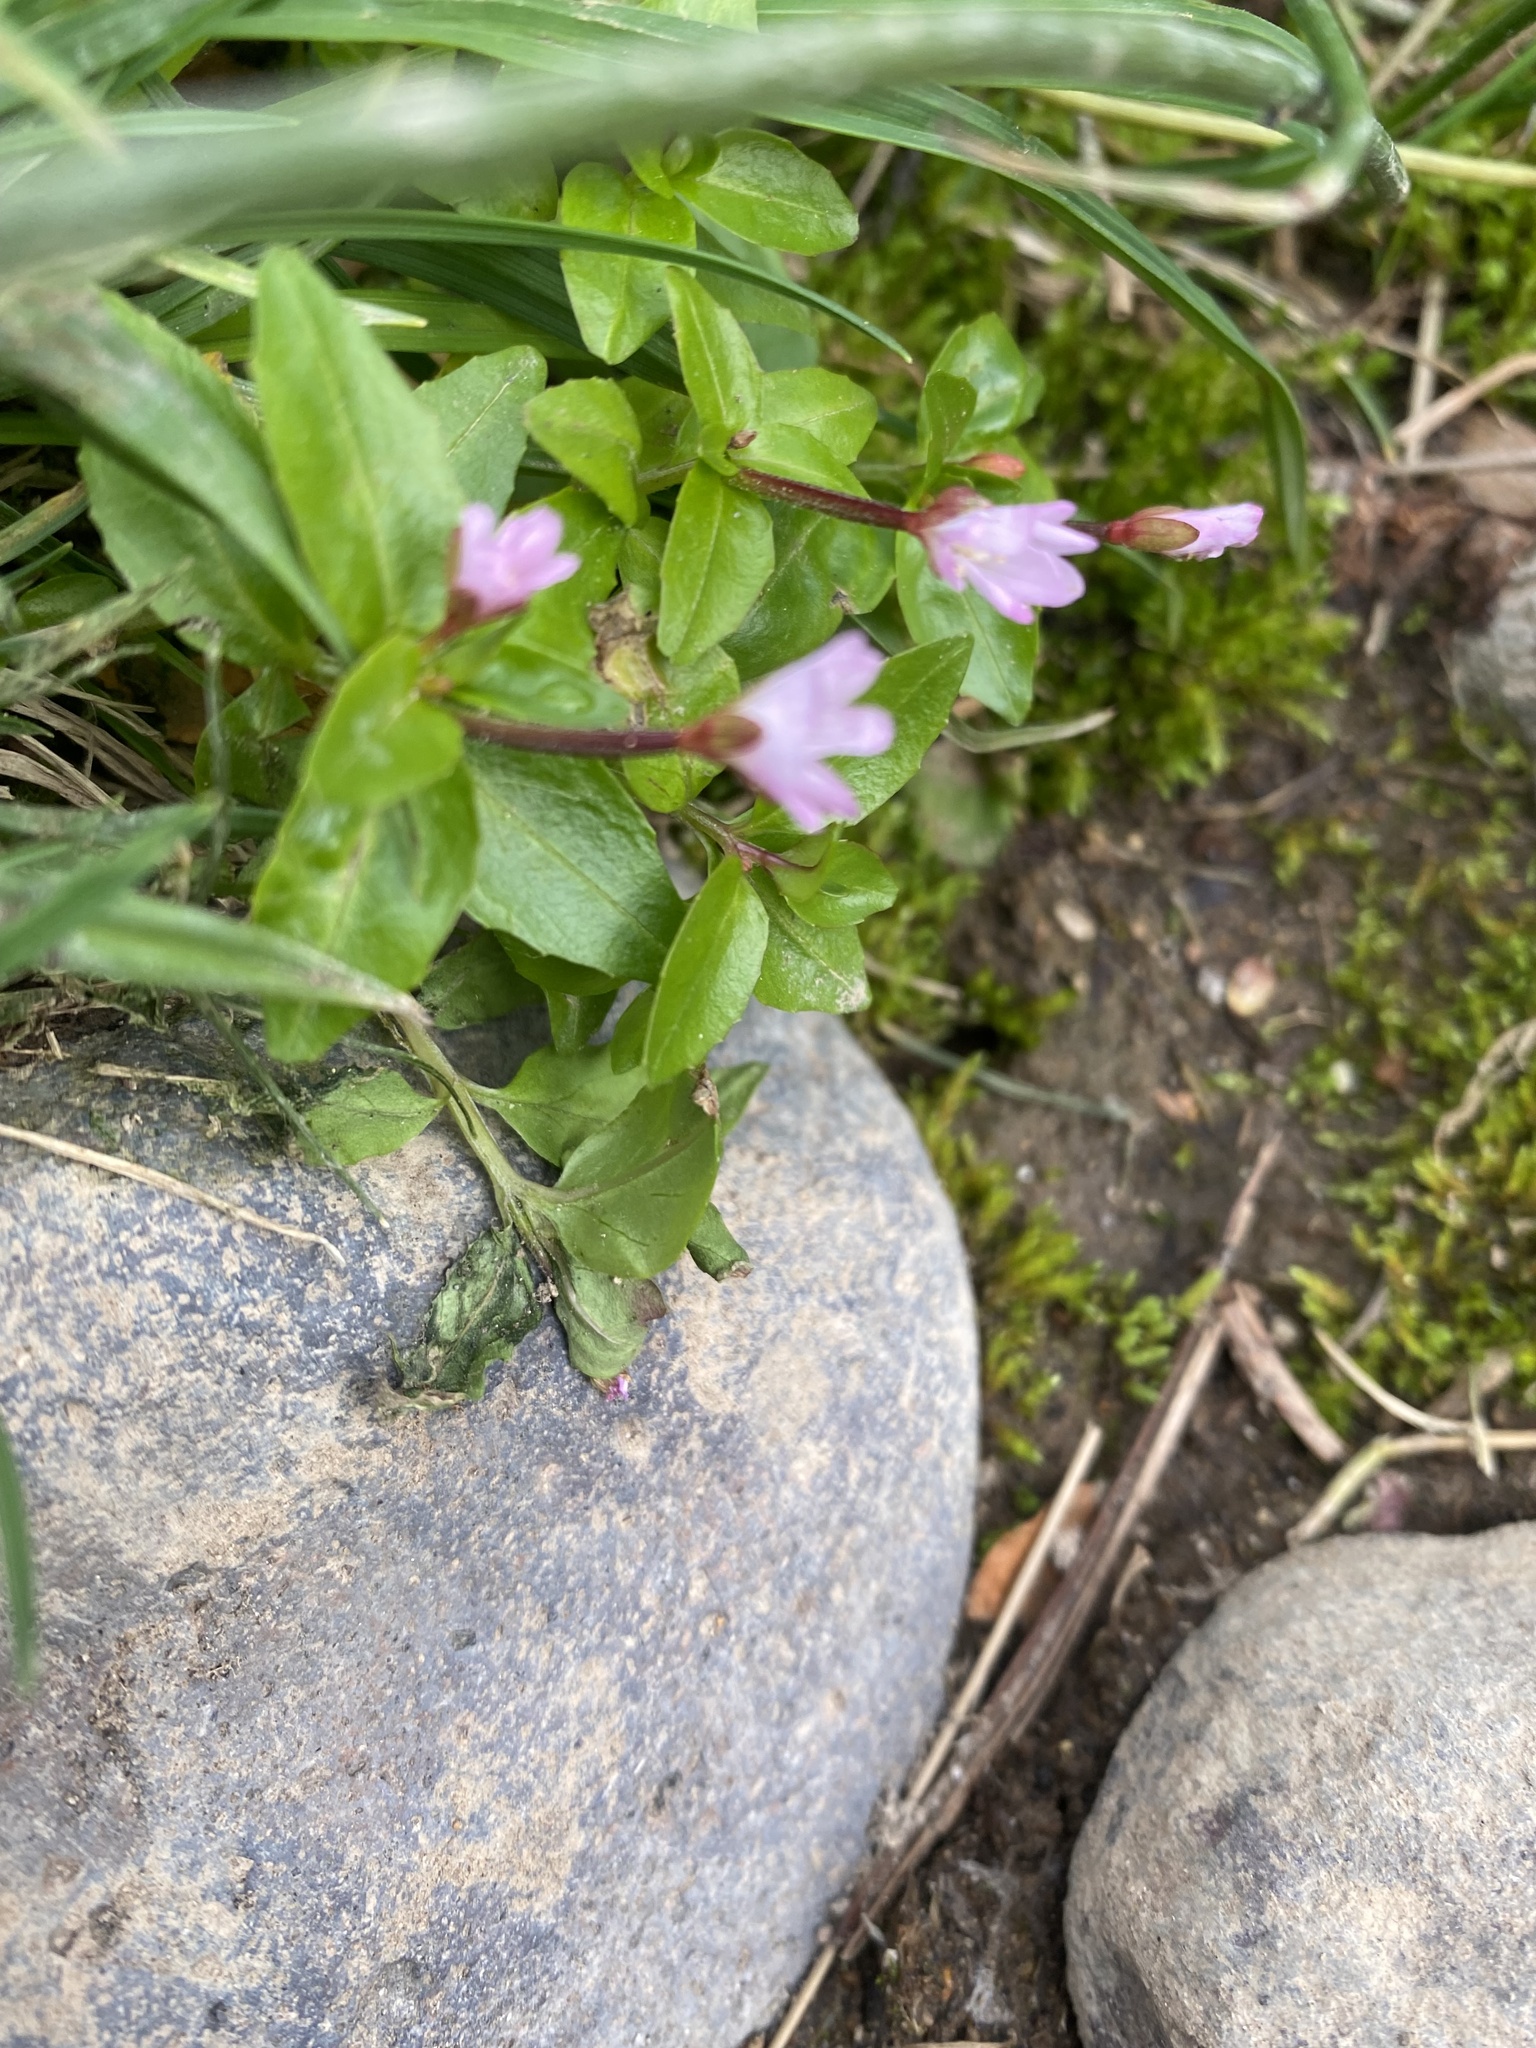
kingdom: Plantae
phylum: Tracheophyta
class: Magnoliopsida
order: Myrtales
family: Onagraceae
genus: Epilobium
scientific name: Epilobium anagallidifolium
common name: Alpine willowherb
